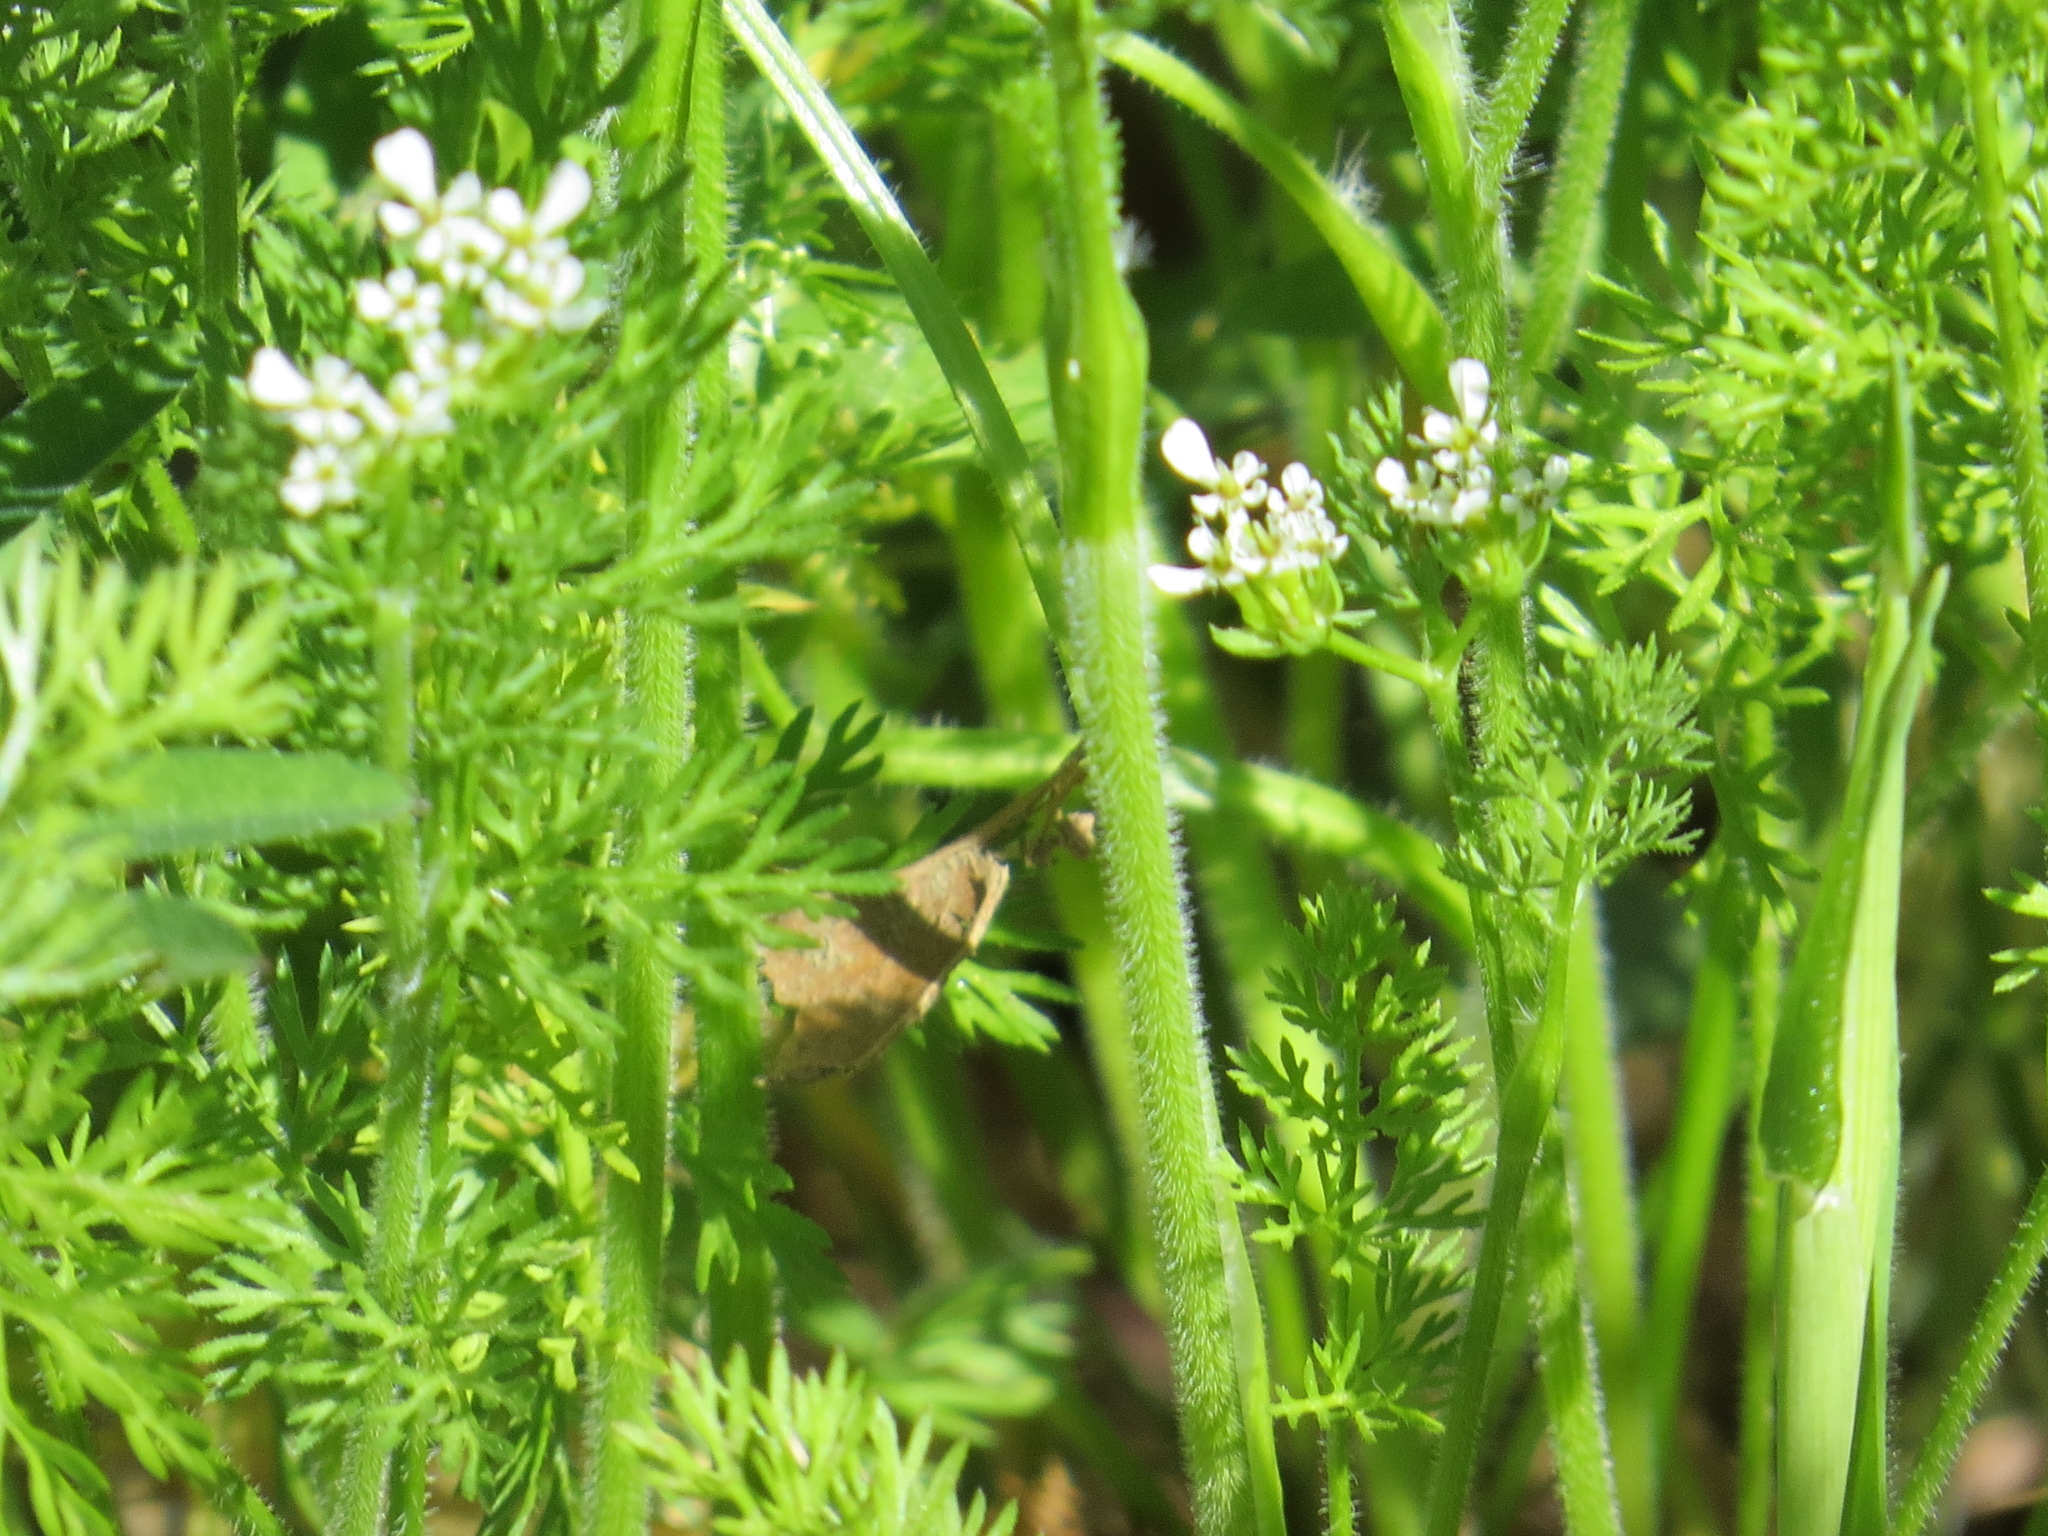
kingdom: Plantae
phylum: Tracheophyta
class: Magnoliopsida
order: Apiales
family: Apiaceae
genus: Scandix
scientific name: Scandix pecten-veneris
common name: Shepherd's-needle
